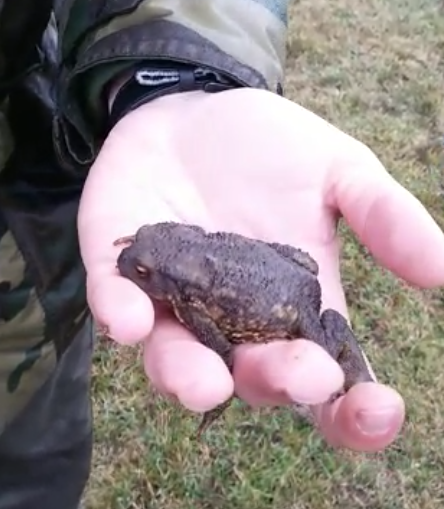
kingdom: Animalia
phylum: Chordata
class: Amphibia
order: Anura
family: Bufonidae
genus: Bufo
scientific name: Bufo spinosus
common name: Western common toad
